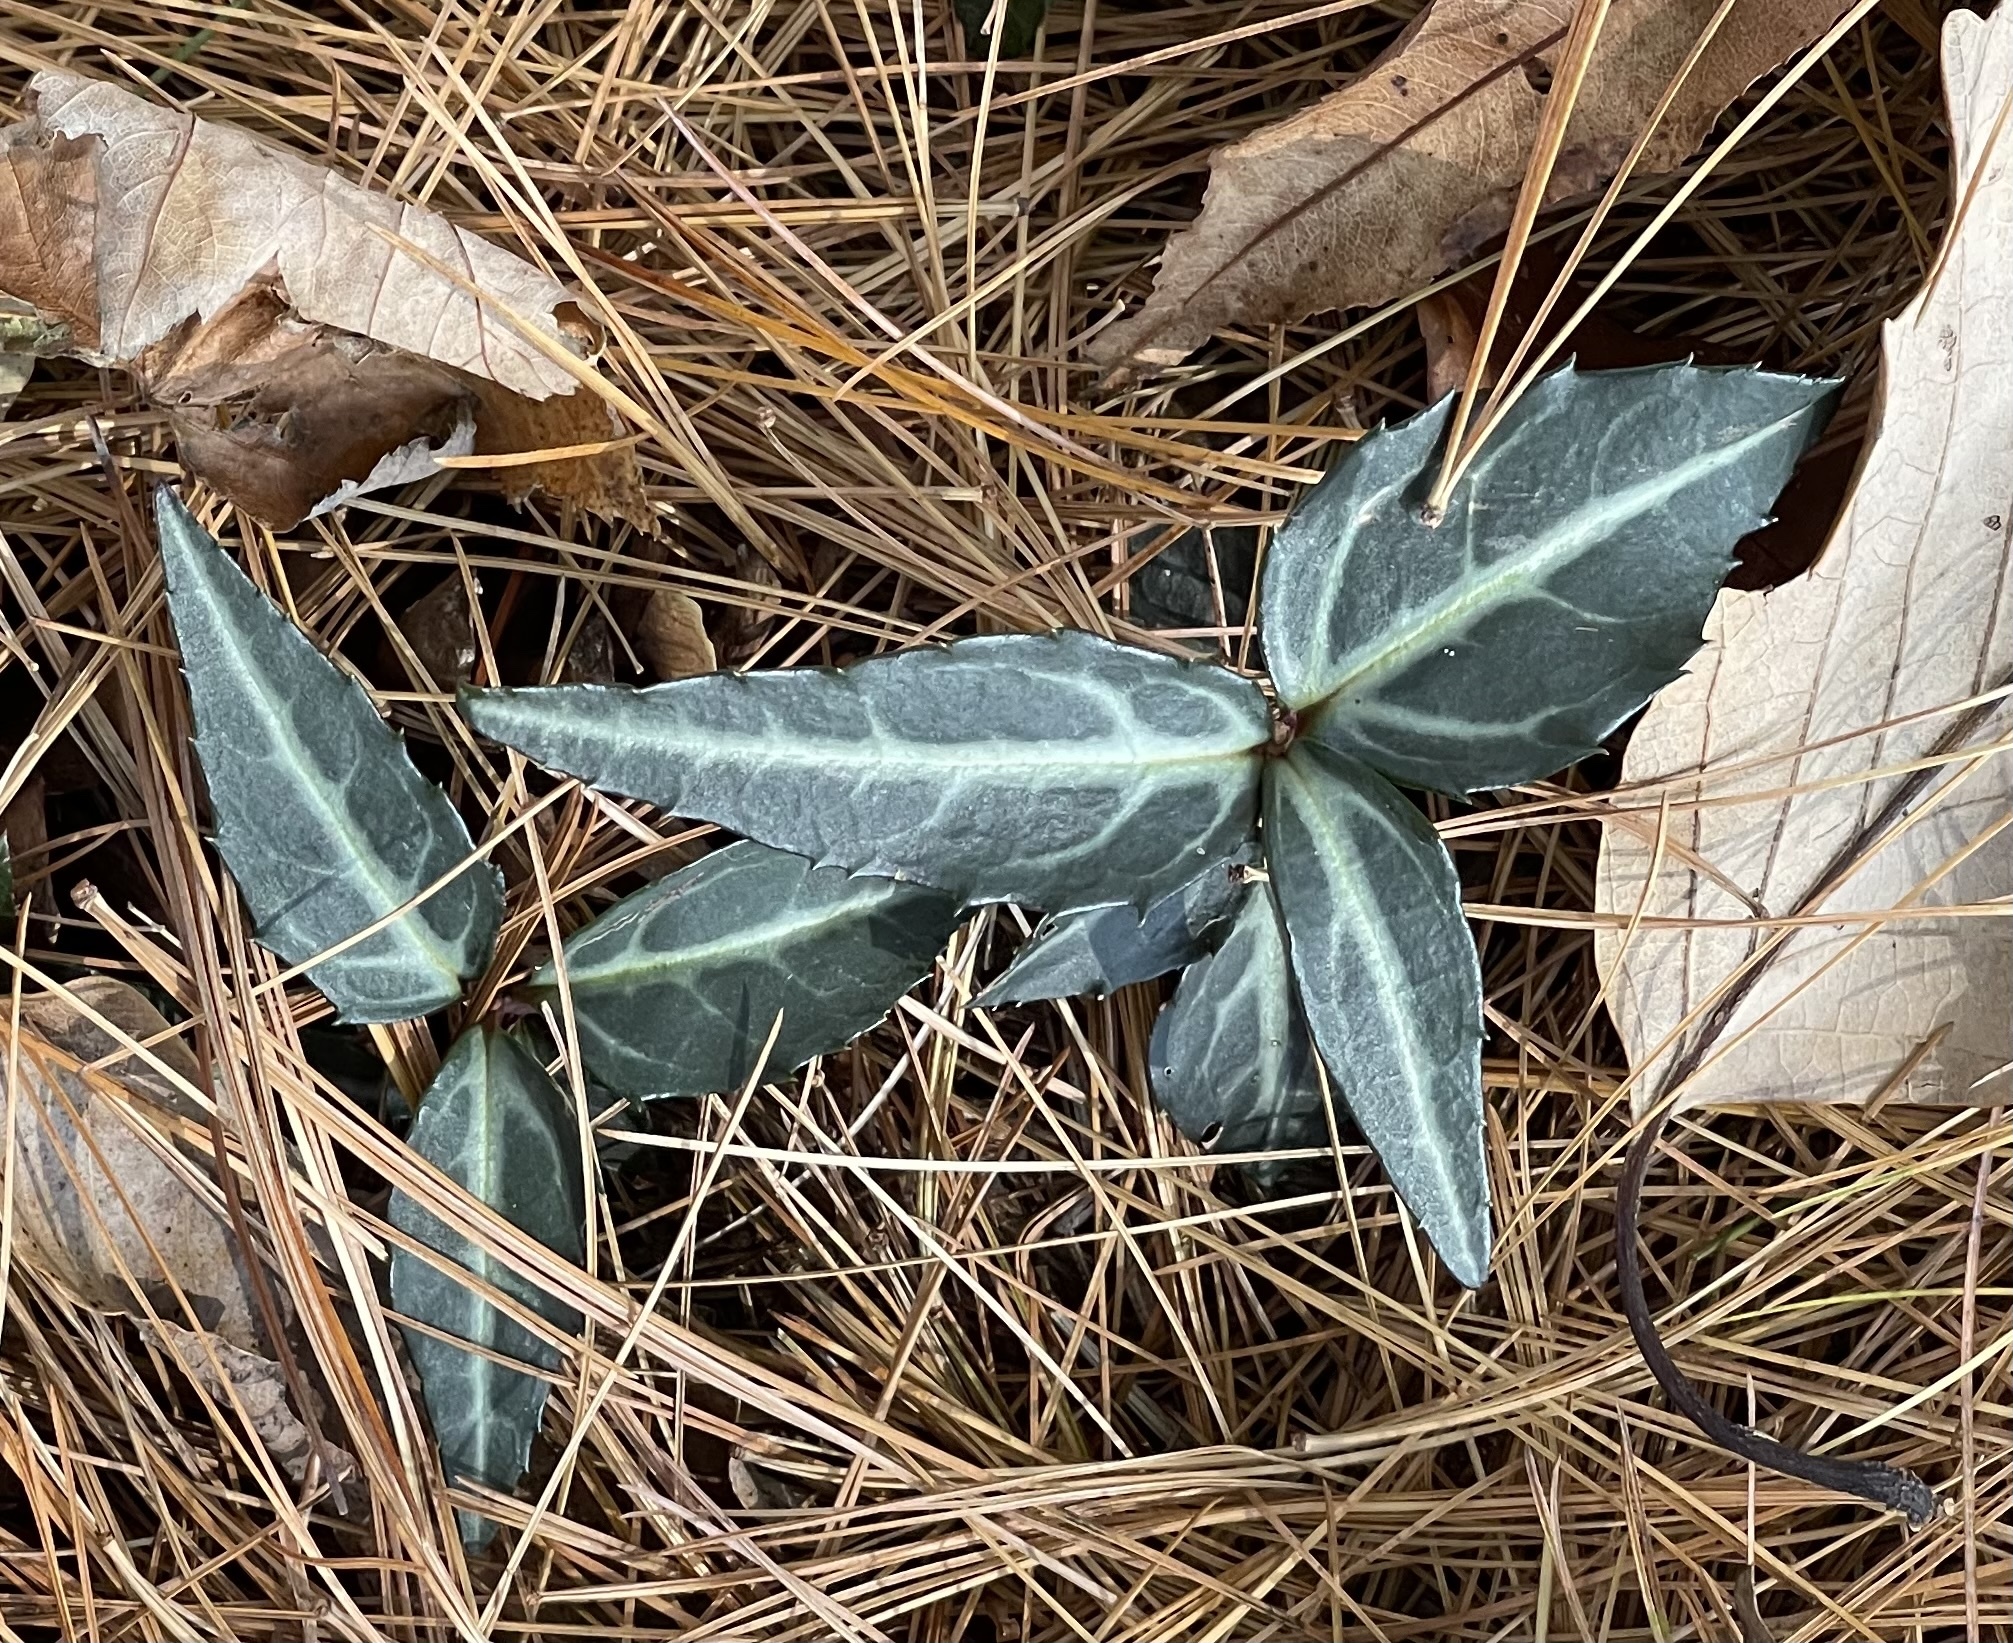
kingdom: Plantae
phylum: Tracheophyta
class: Magnoliopsida
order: Ericales
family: Ericaceae
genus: Chimaphila
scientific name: Chimaphila maculata
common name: Spotted pipsissewa
